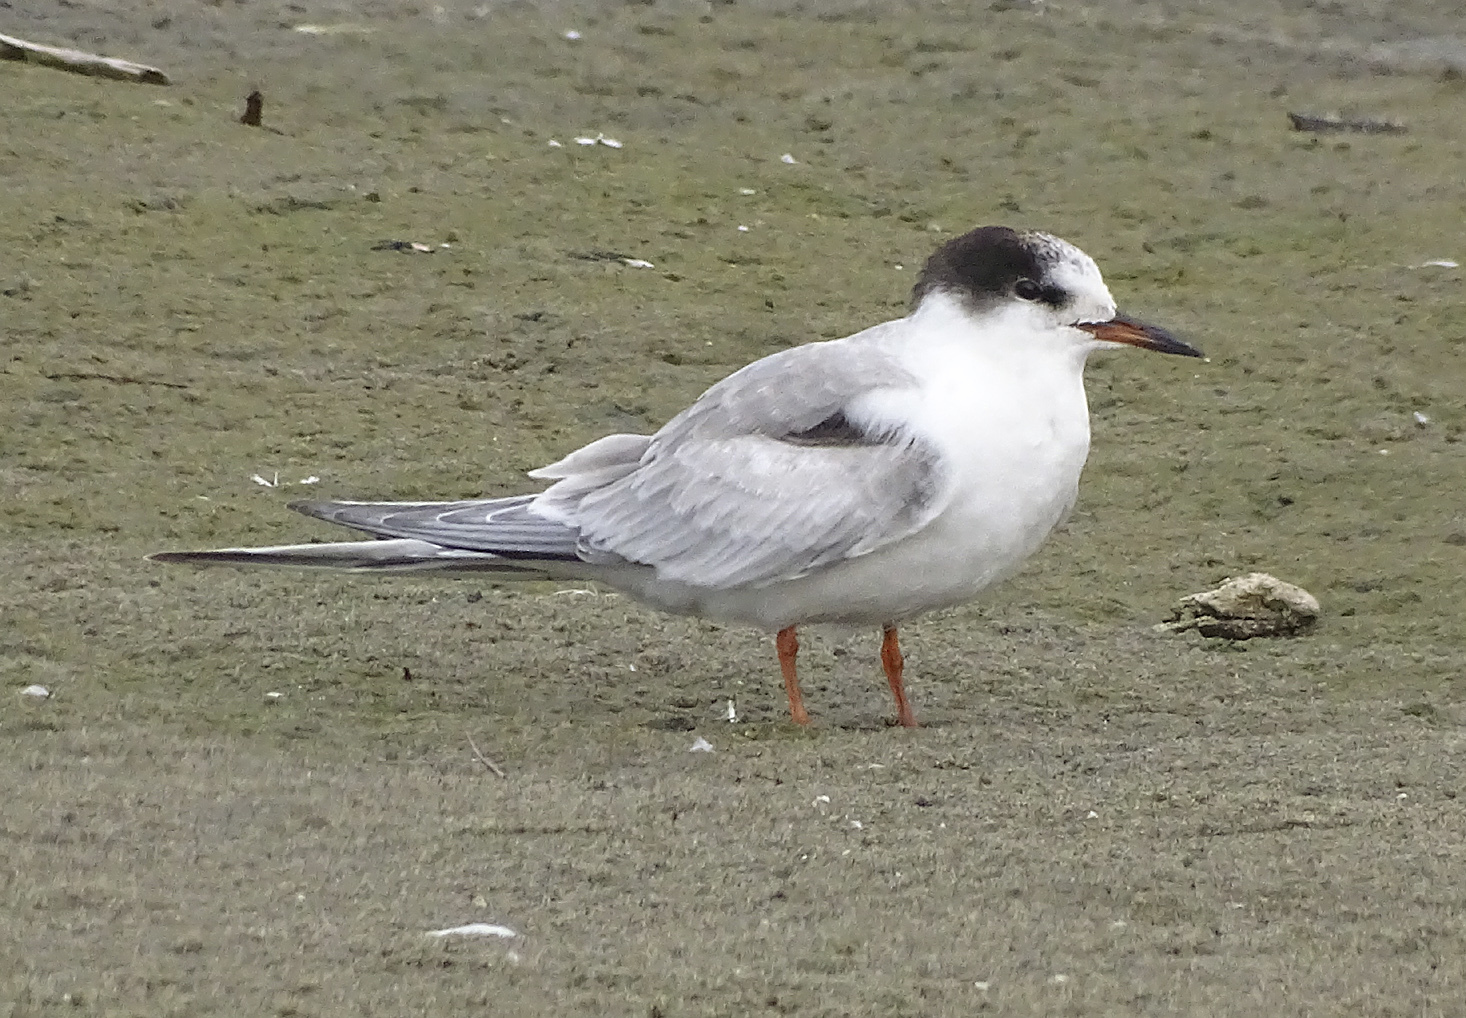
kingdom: Animalia
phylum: Chordata
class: Aves
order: Charadriiformes
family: Laridae
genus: Sterna
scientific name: Sterna hirundo
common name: Common tern
